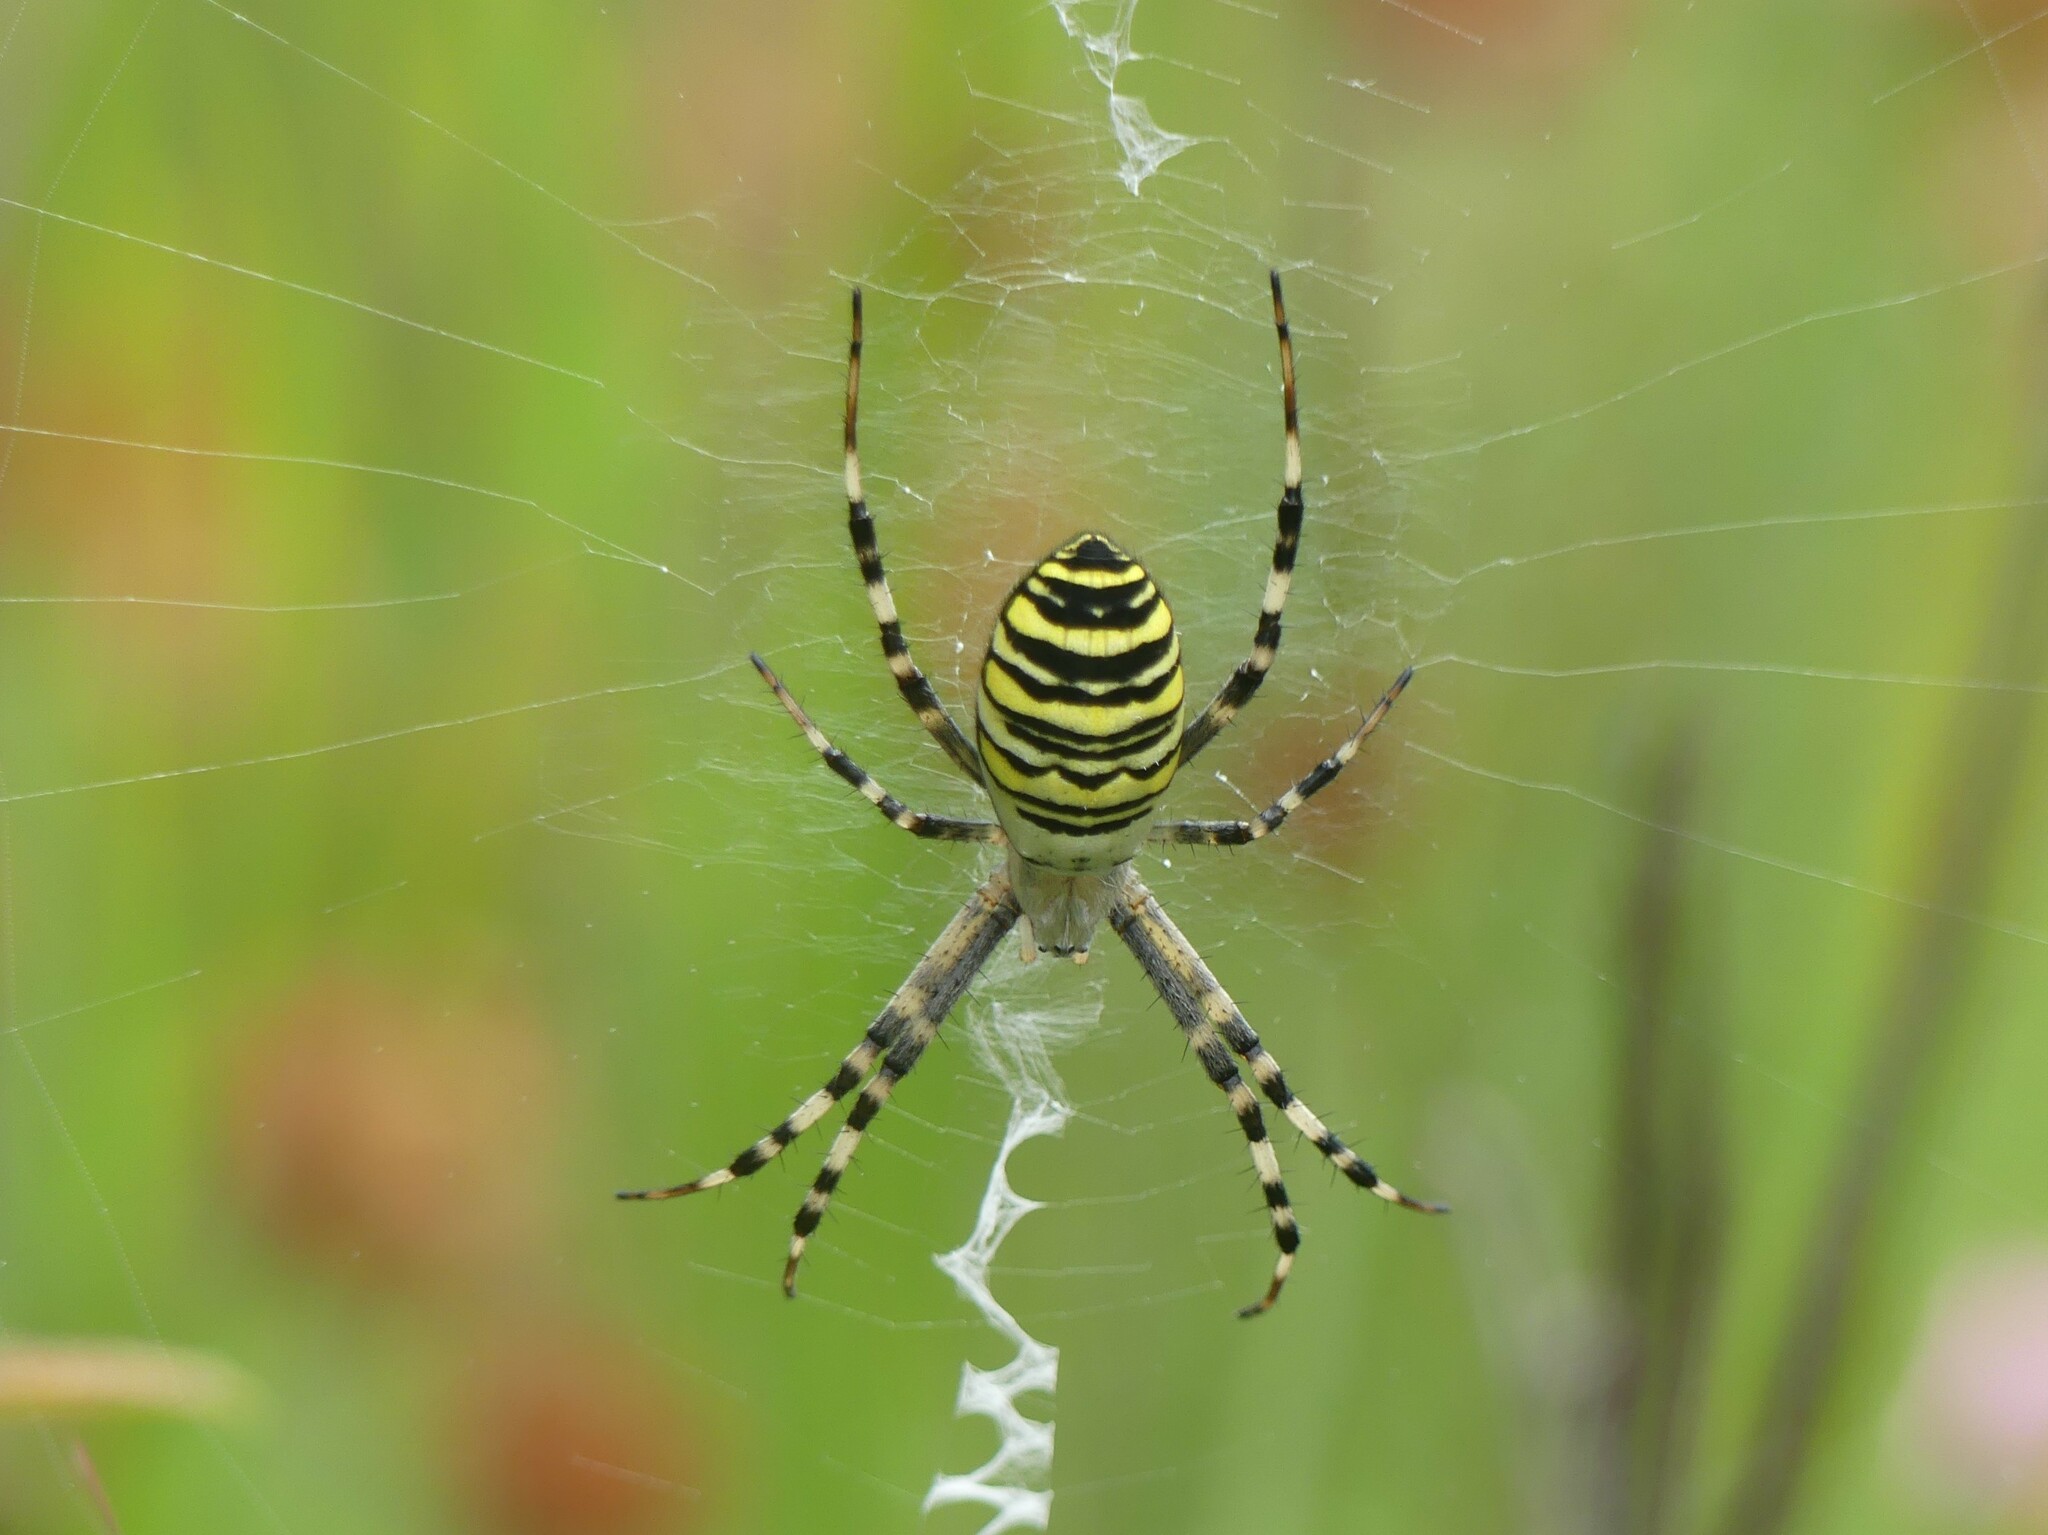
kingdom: Animalia
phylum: Arthropoda
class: Arachnida
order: Araneae
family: Araneidae
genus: Argiope
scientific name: Argiope bruennichi
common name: Wasp spider
